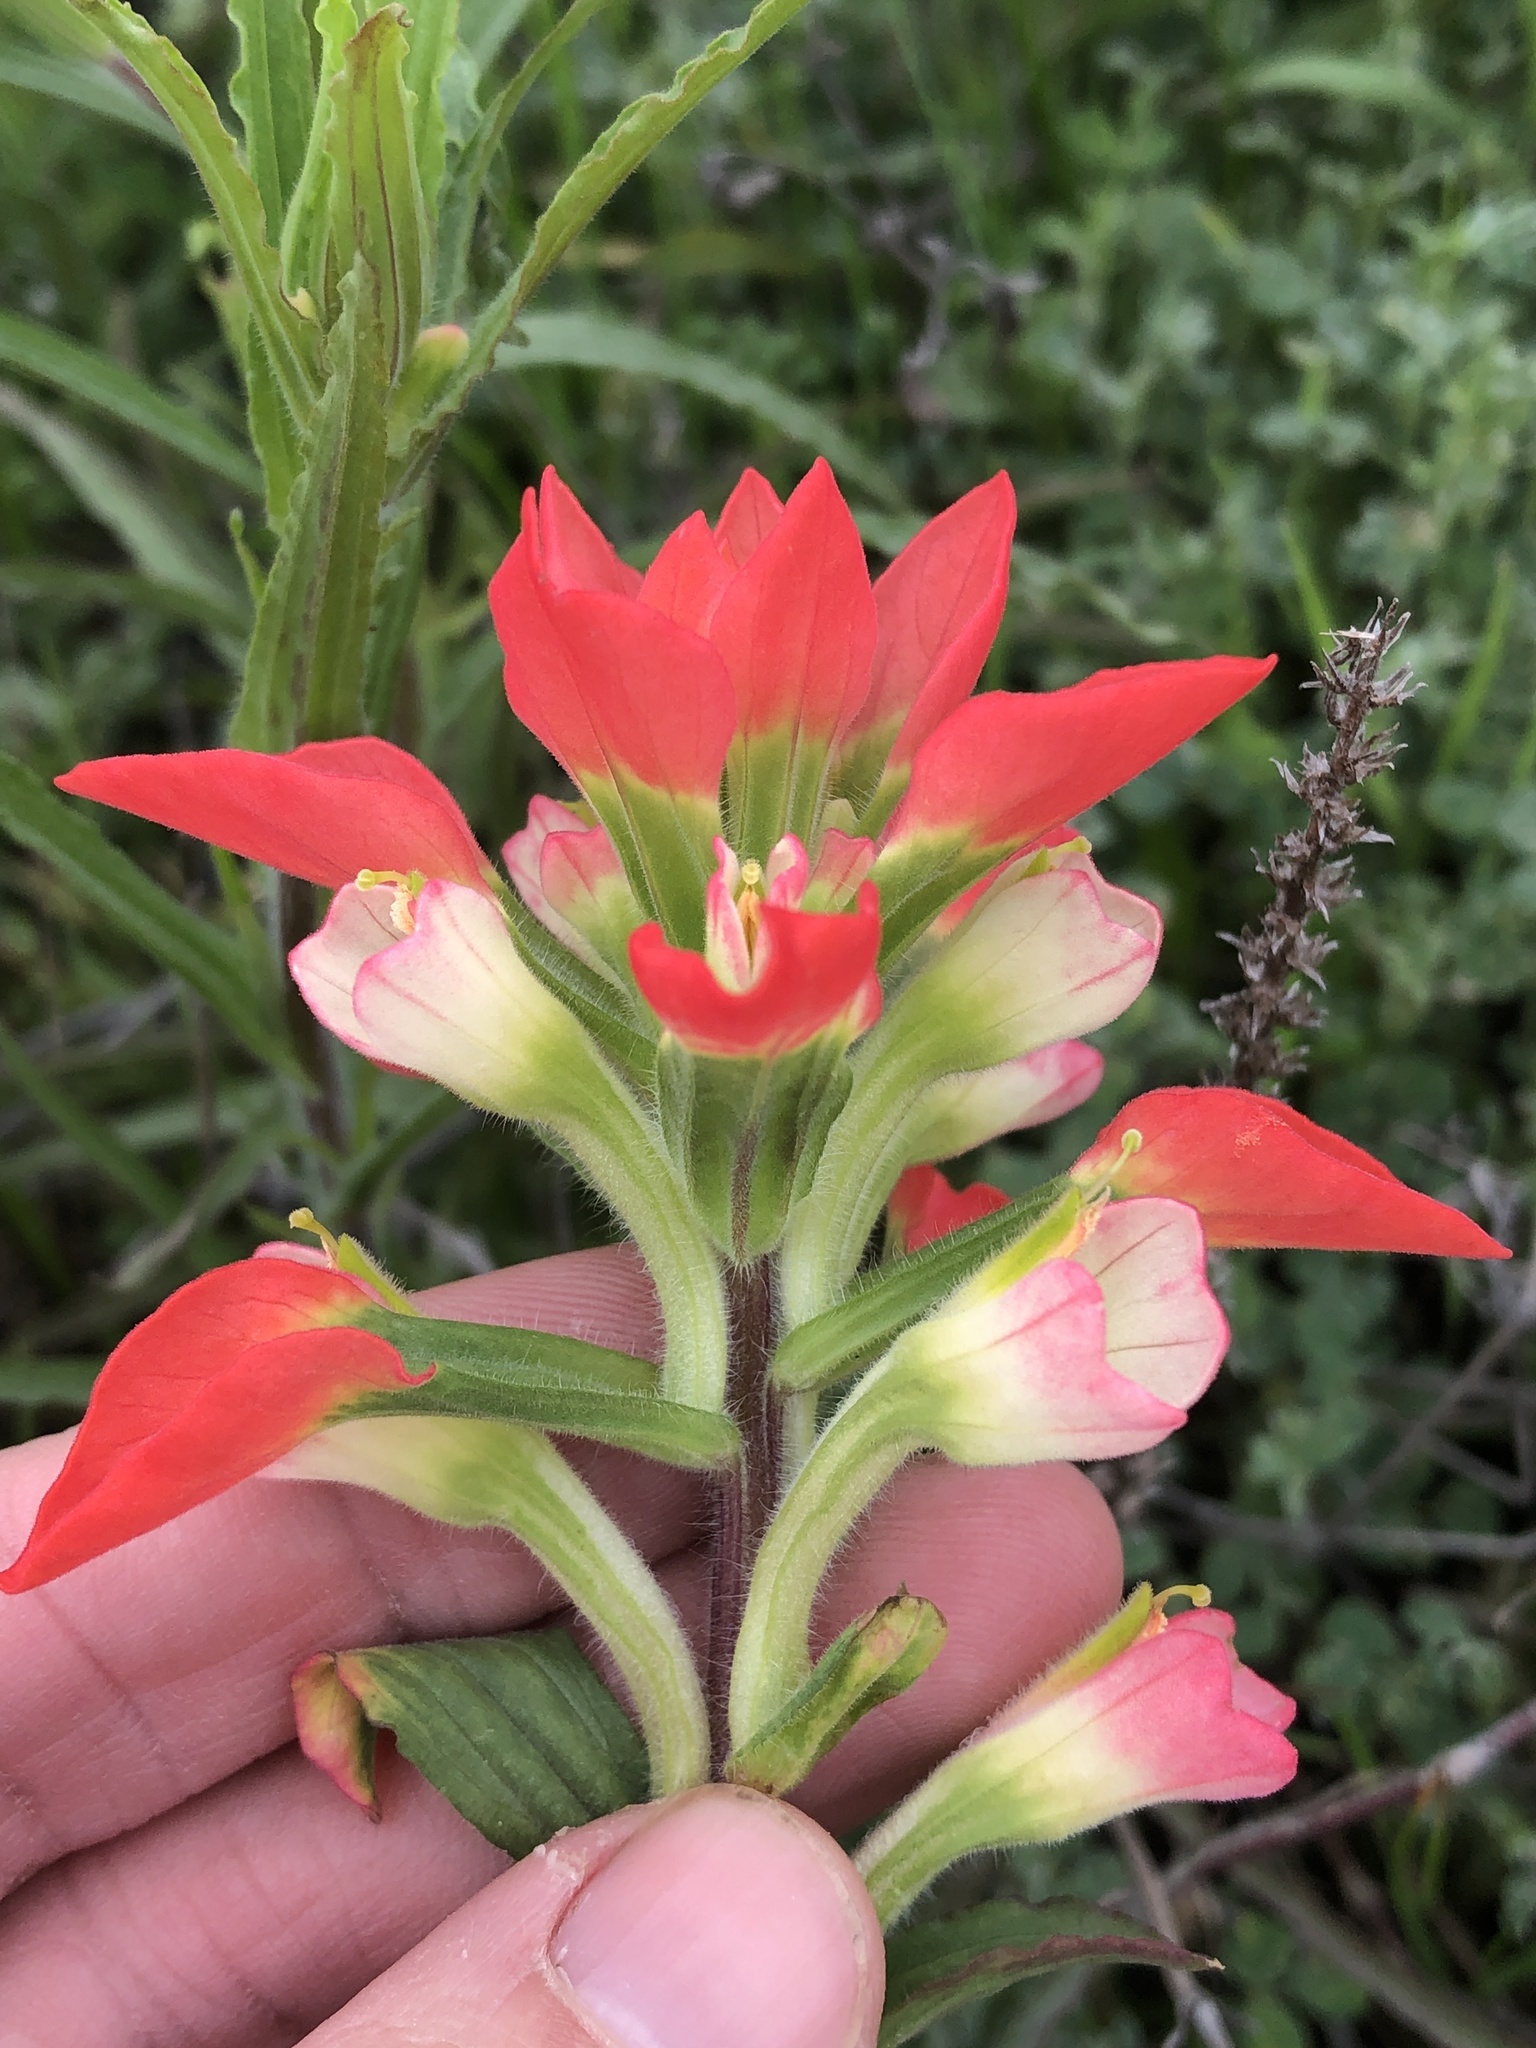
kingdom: Plantae
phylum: Tracheophyta
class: Magnoliopsida
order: Lamiales
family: Orobanchaceae
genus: Castilleja
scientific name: Castilleja indivisa
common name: Texas paintbrush
